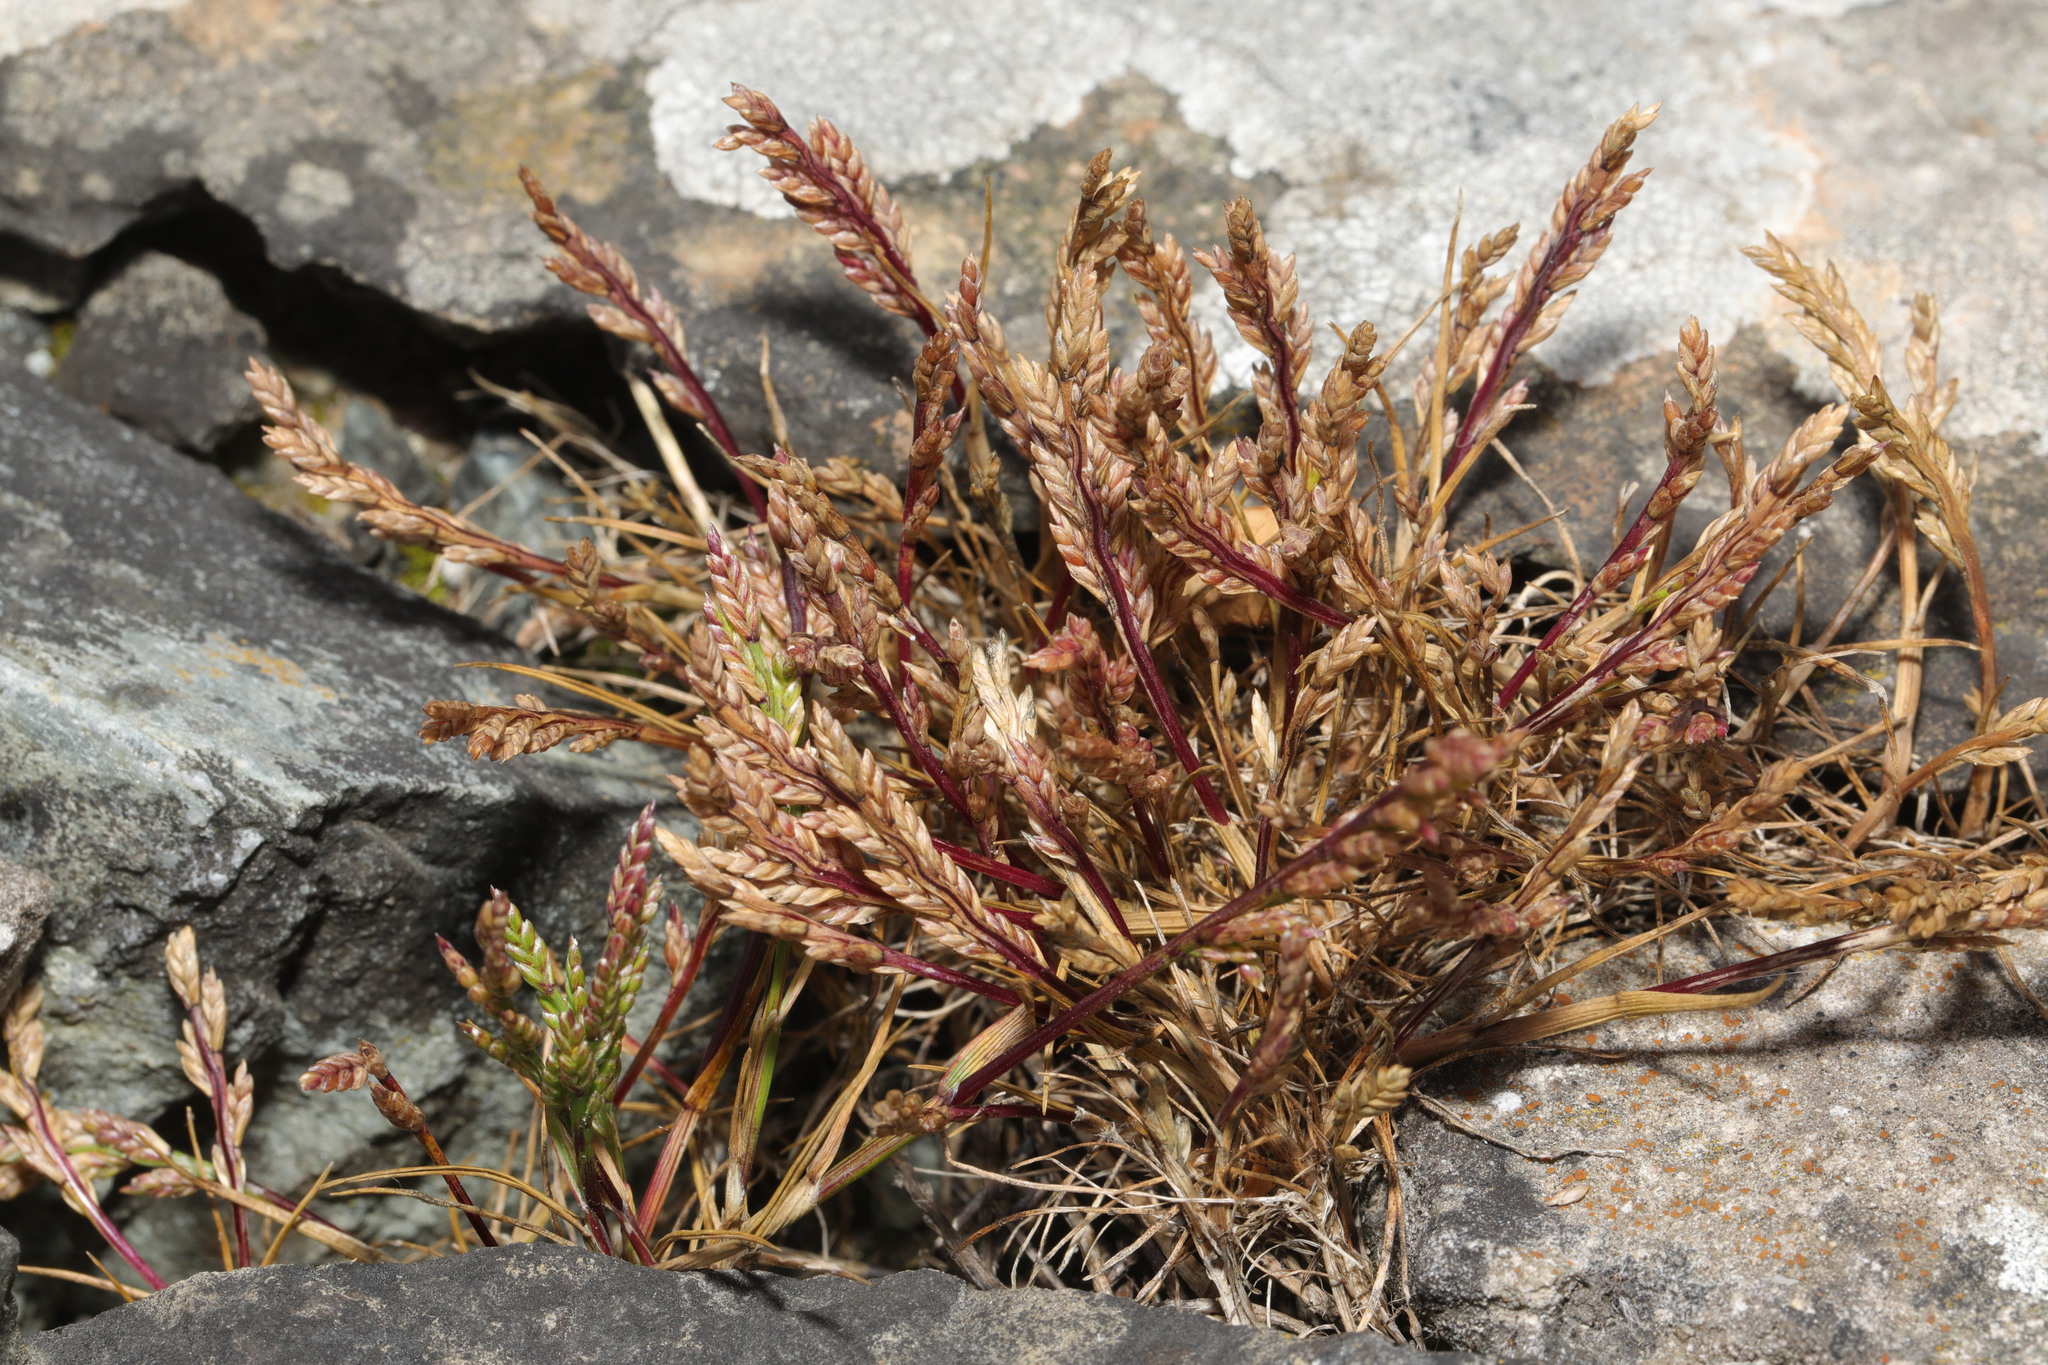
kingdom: Plantae
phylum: Tracheophyta
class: Liliopsida
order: Poales
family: Poaceae
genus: Catapodium
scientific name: Catapodium rigidum
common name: Fern-grass
